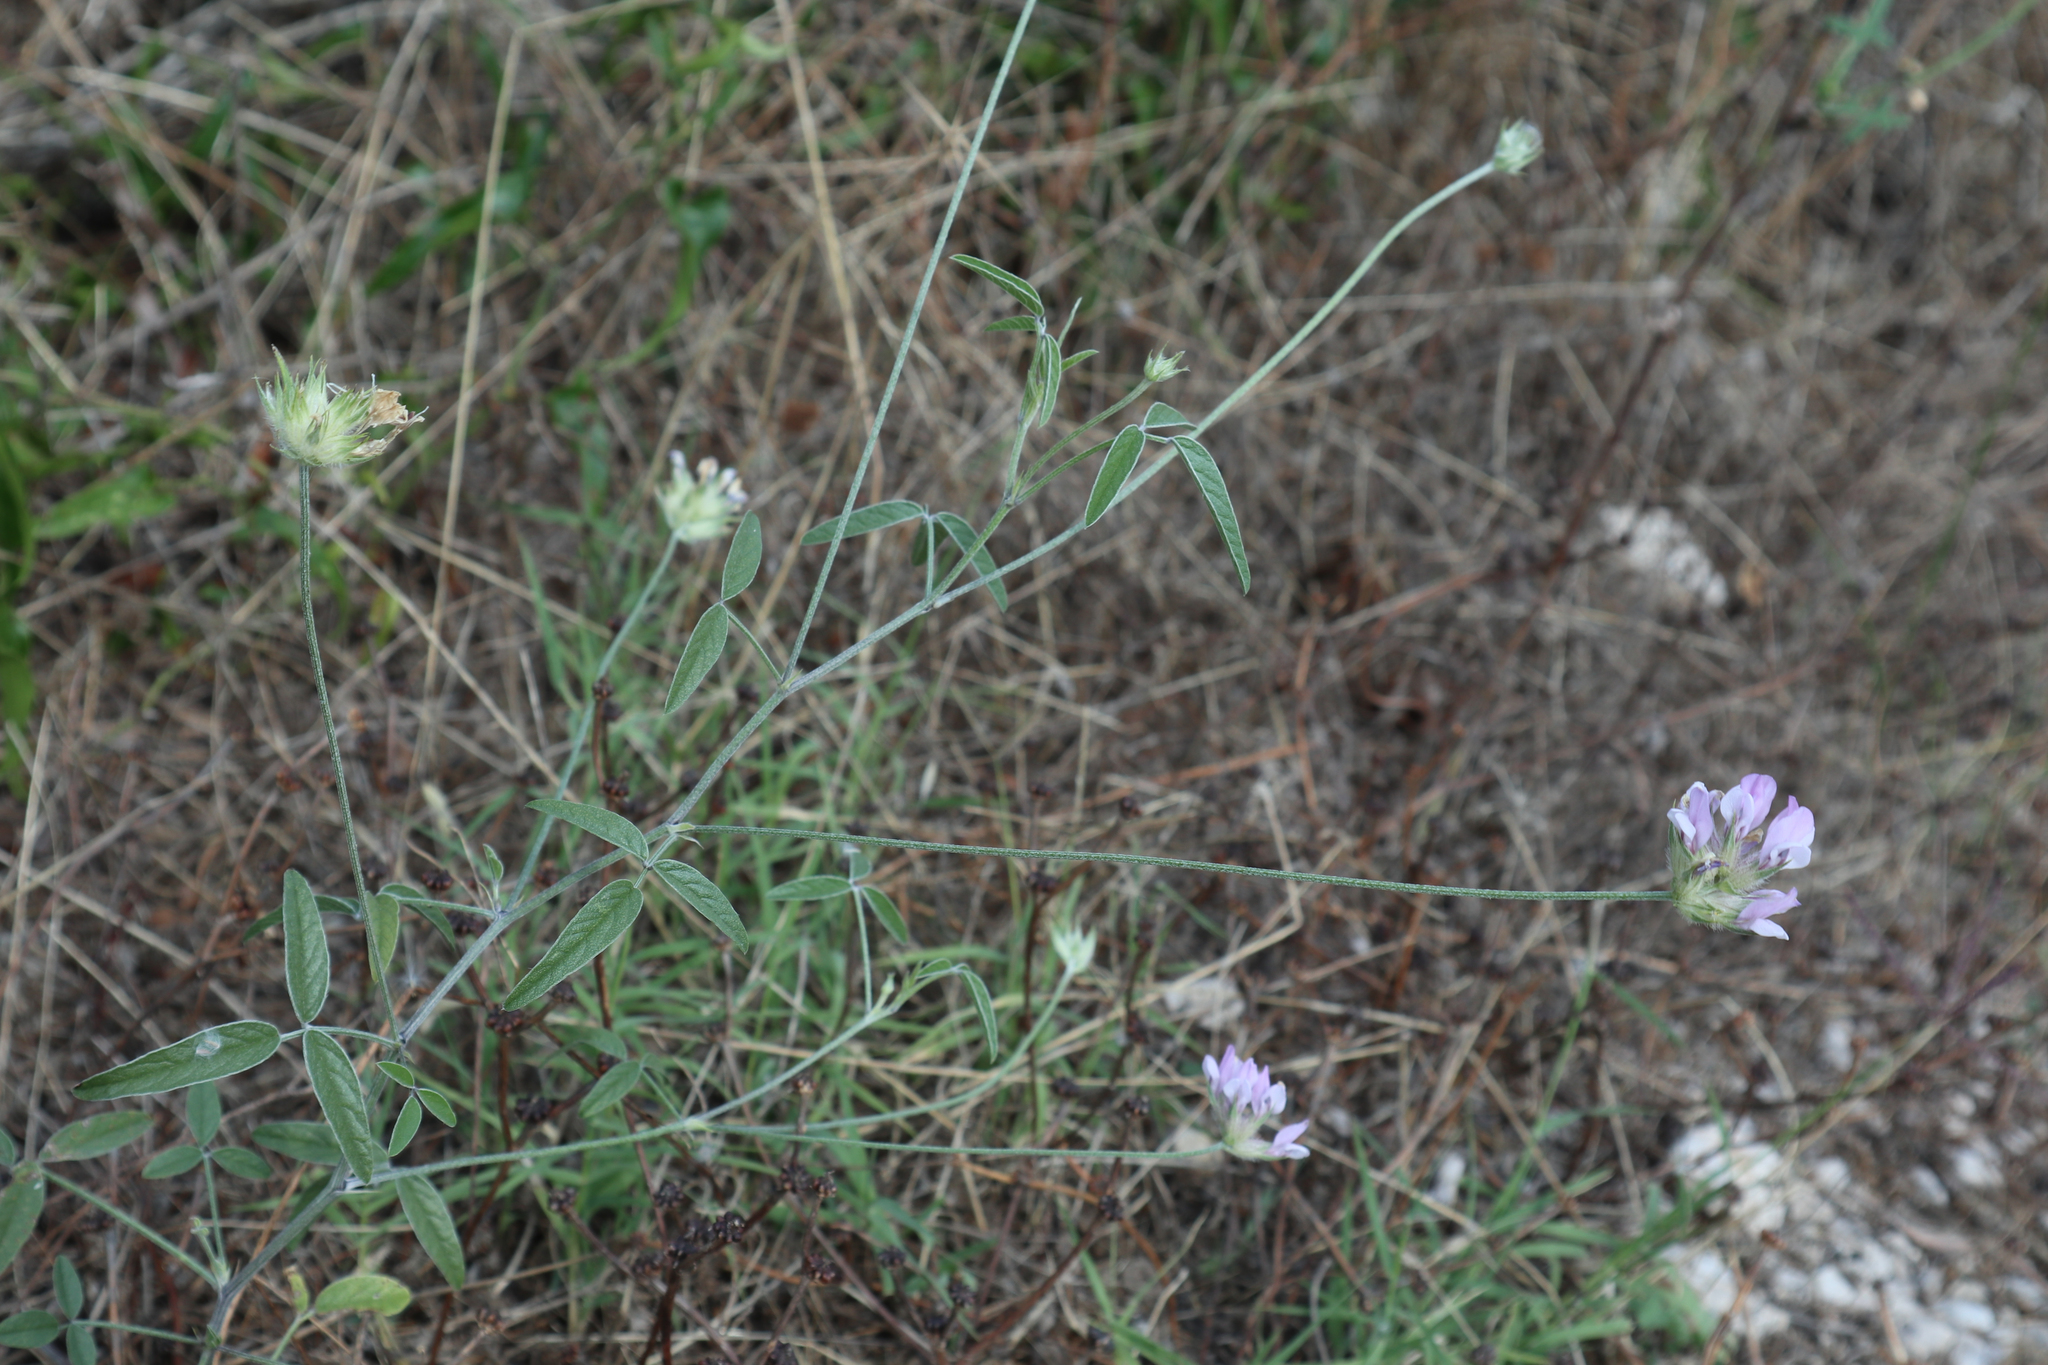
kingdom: Plantae
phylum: Tracheophyta
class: Magnoliopsida
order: Fabales
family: Fabaceae
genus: Bituminaria
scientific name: Bituminaria bituminosa
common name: Arabian pea
